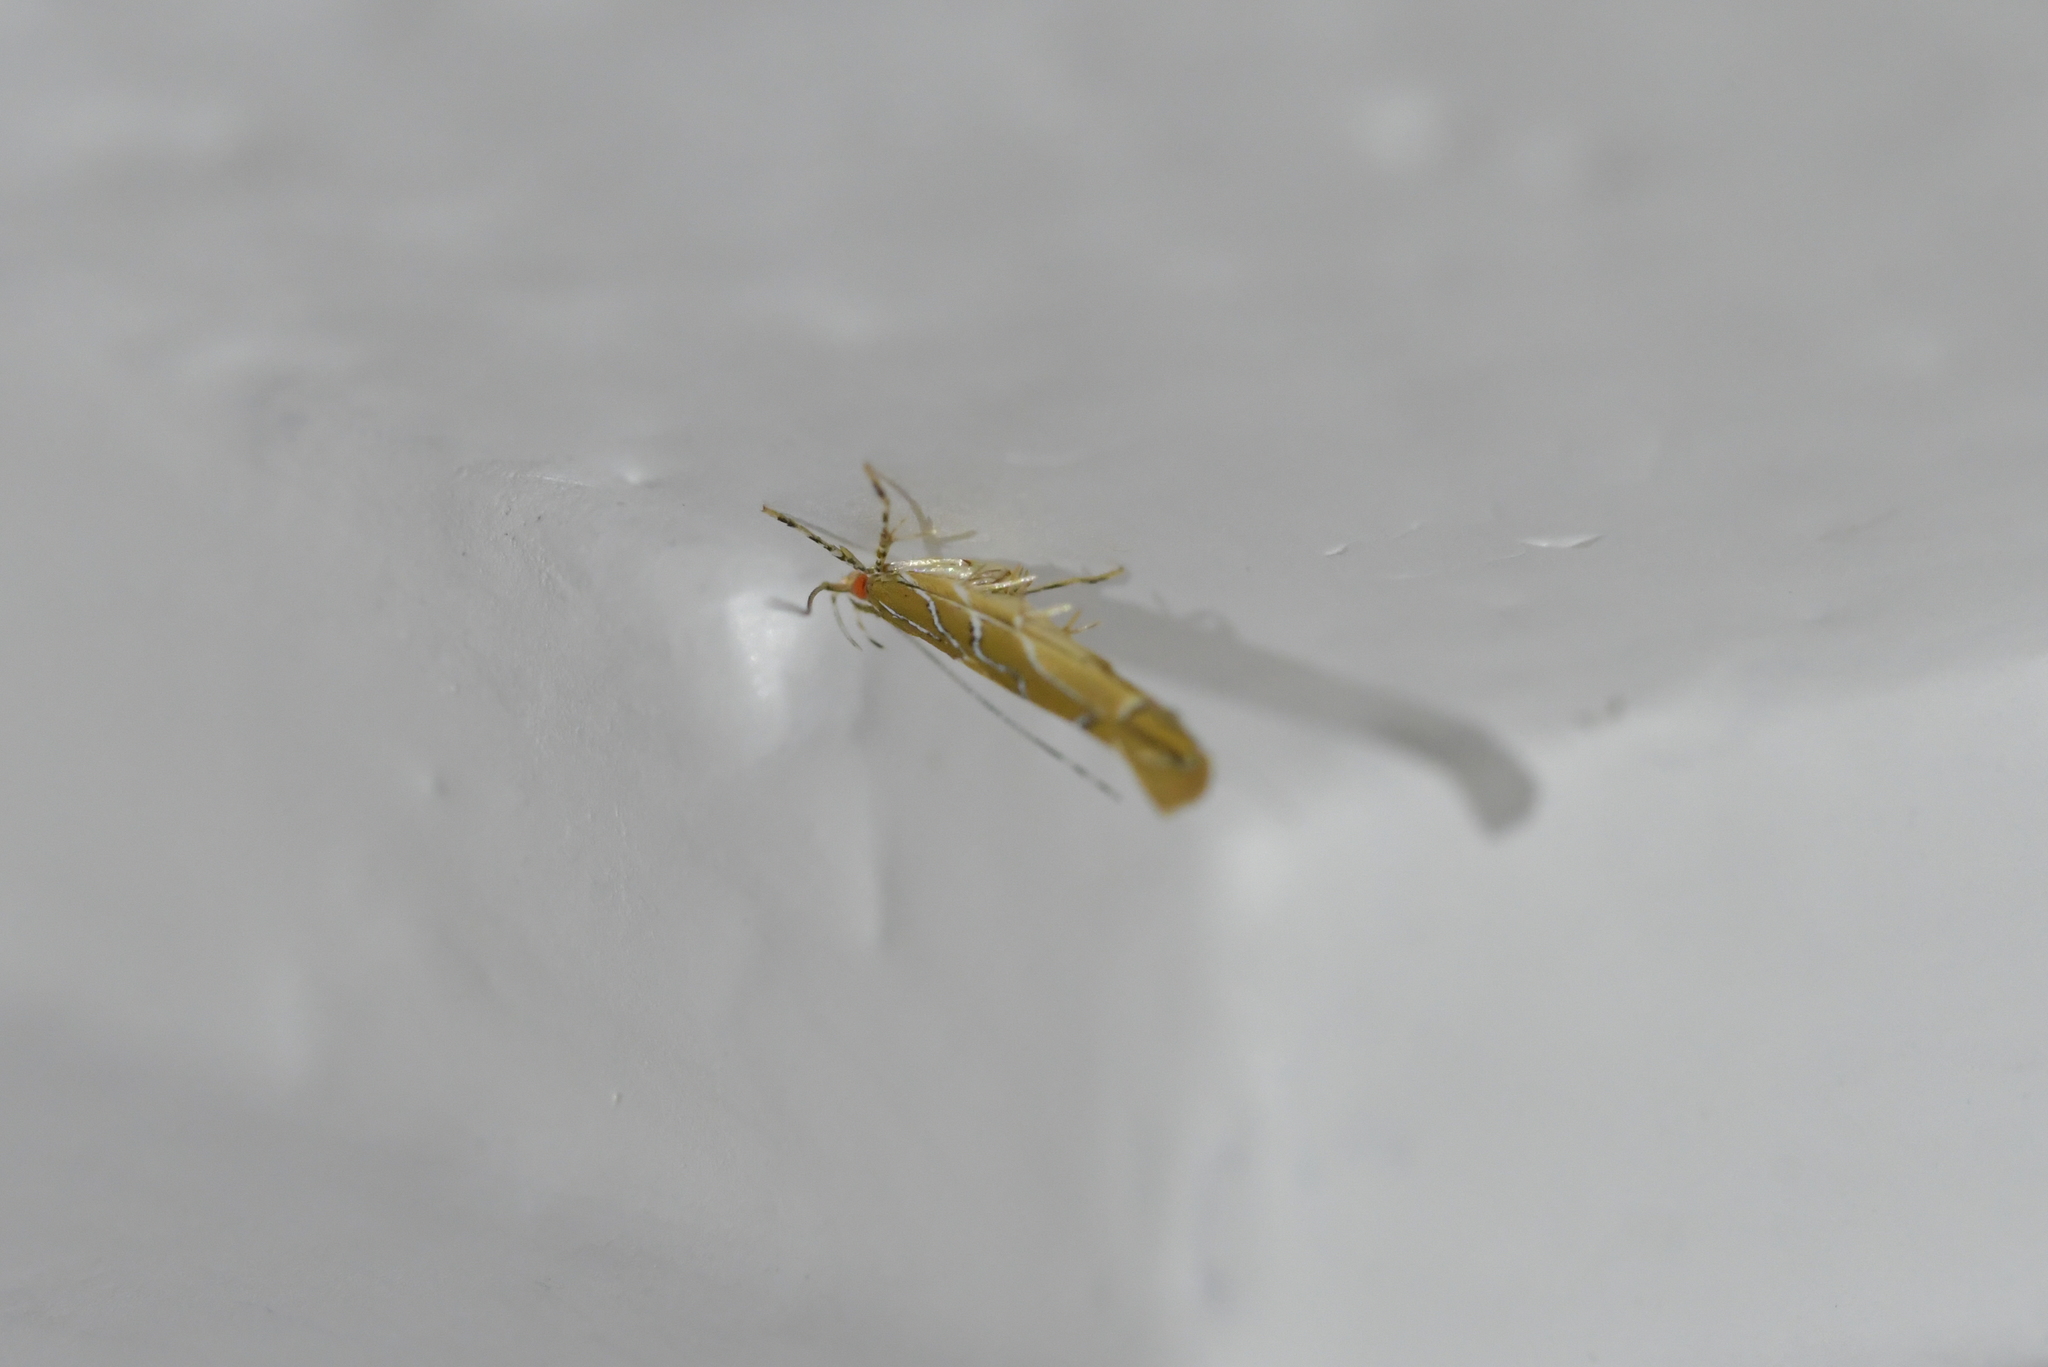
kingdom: Animalia
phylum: Arthropoda
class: Insecta
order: Lepidoptera
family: Cosmopterigidae
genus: Pyroderces
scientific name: Pyroderces apparitella
